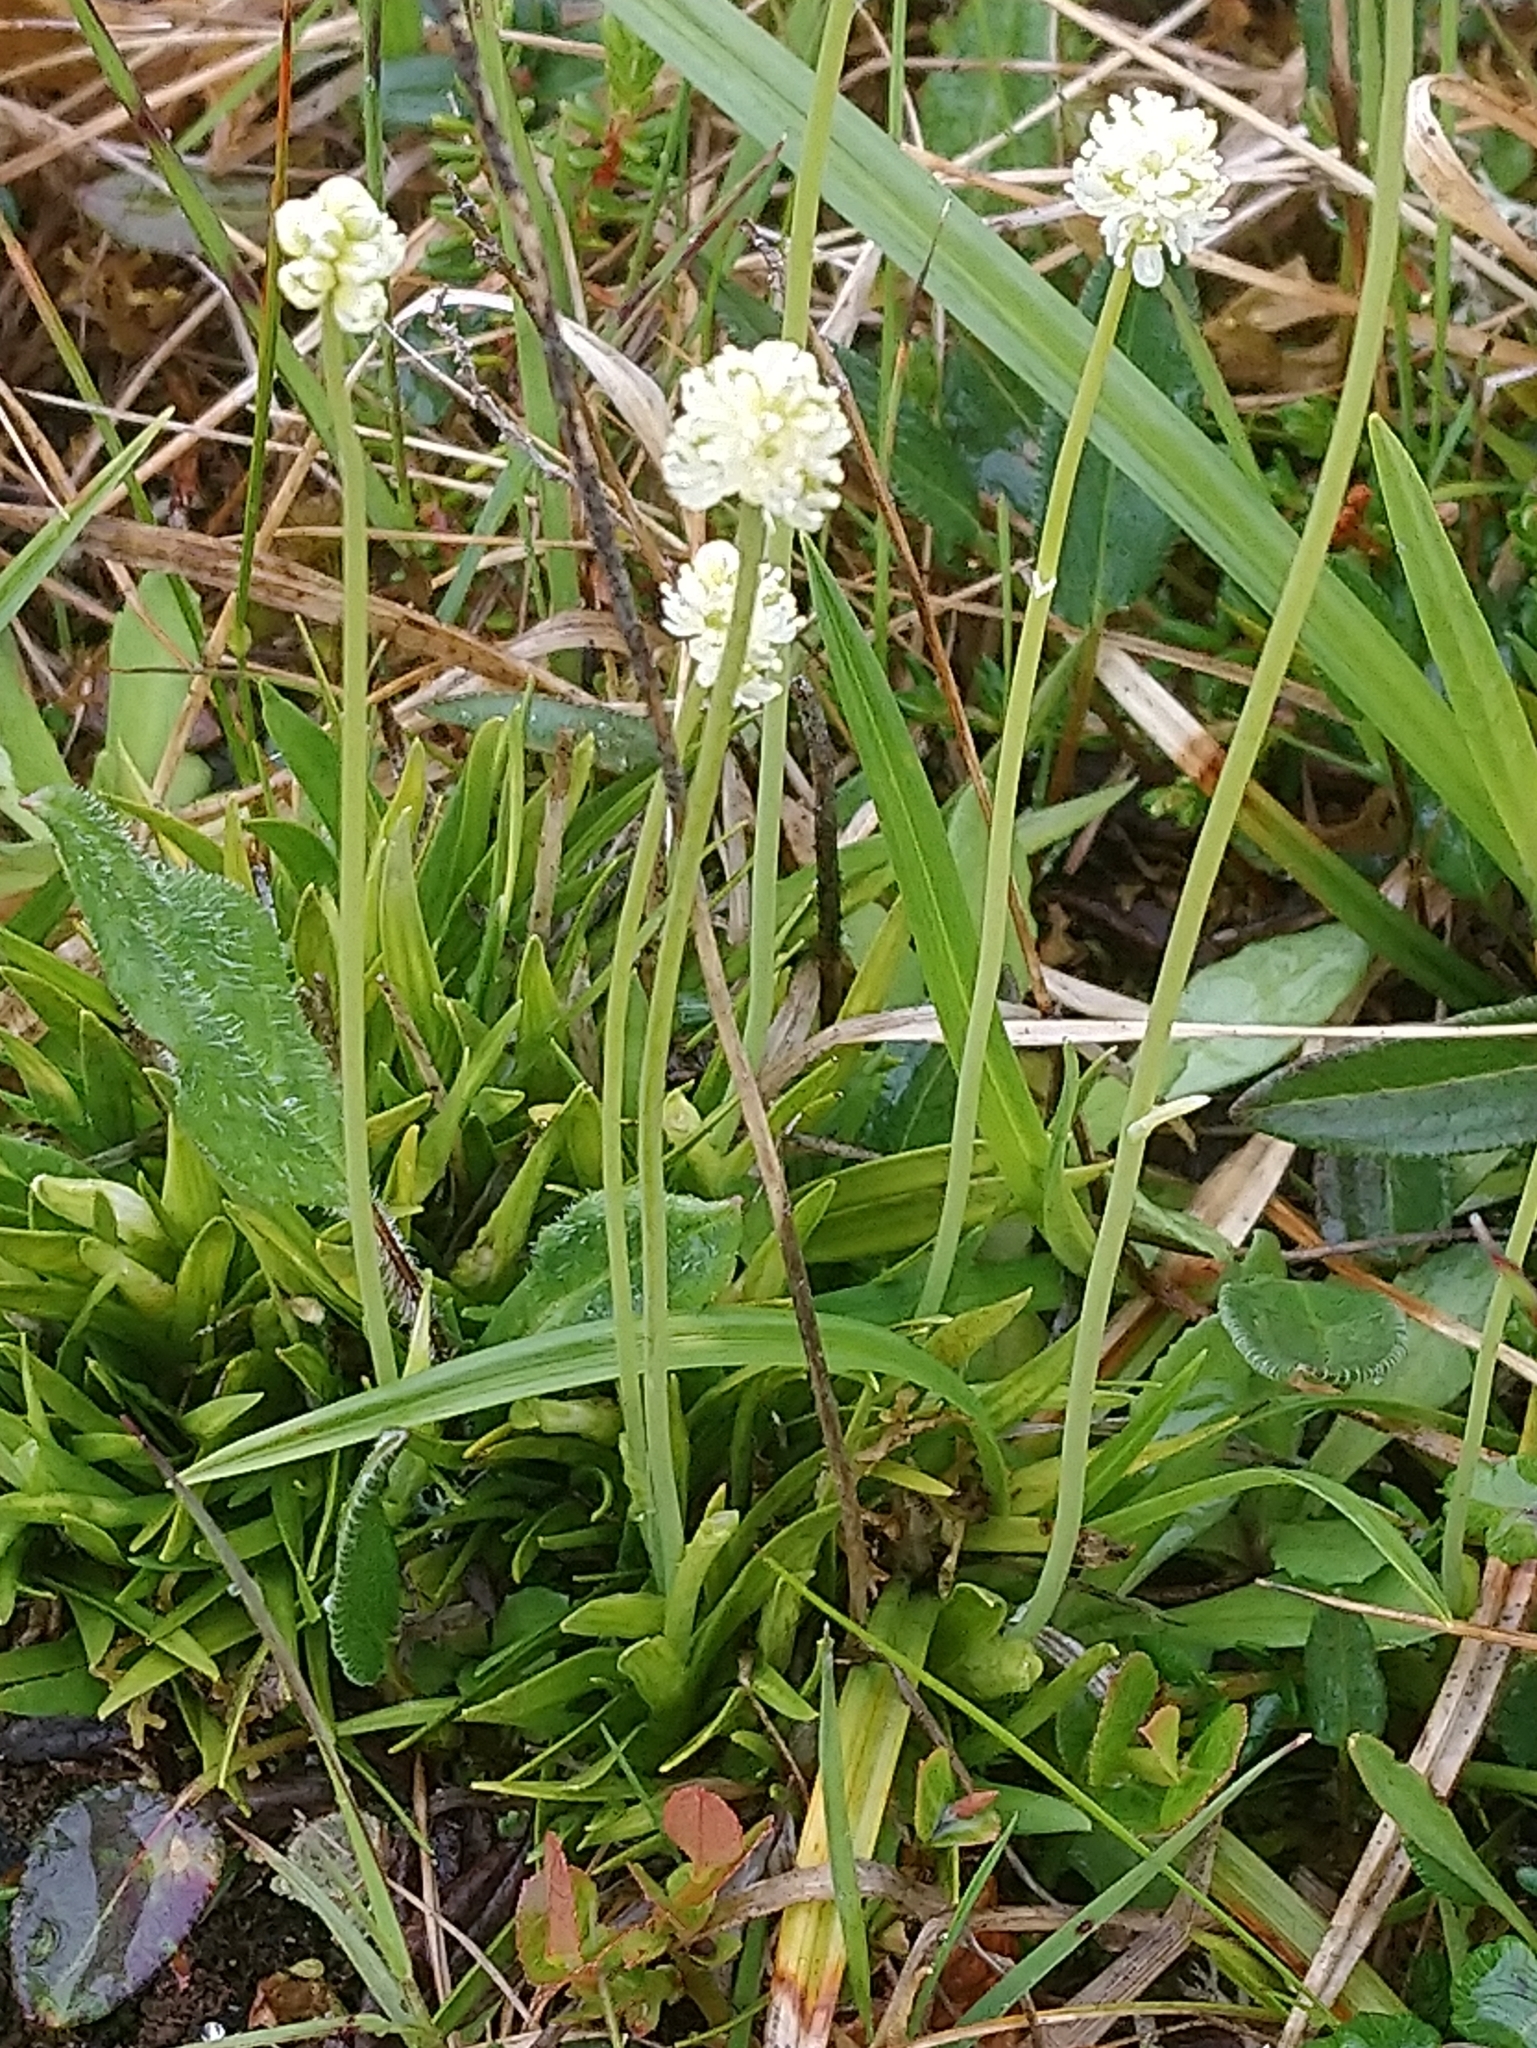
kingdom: Plantae
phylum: Tracheophyta
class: Liliopsida
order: Alismatales
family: Tofieldiaceae
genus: Tofieldia
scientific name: Tofieldia pusilla
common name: Scottish false asphodel
